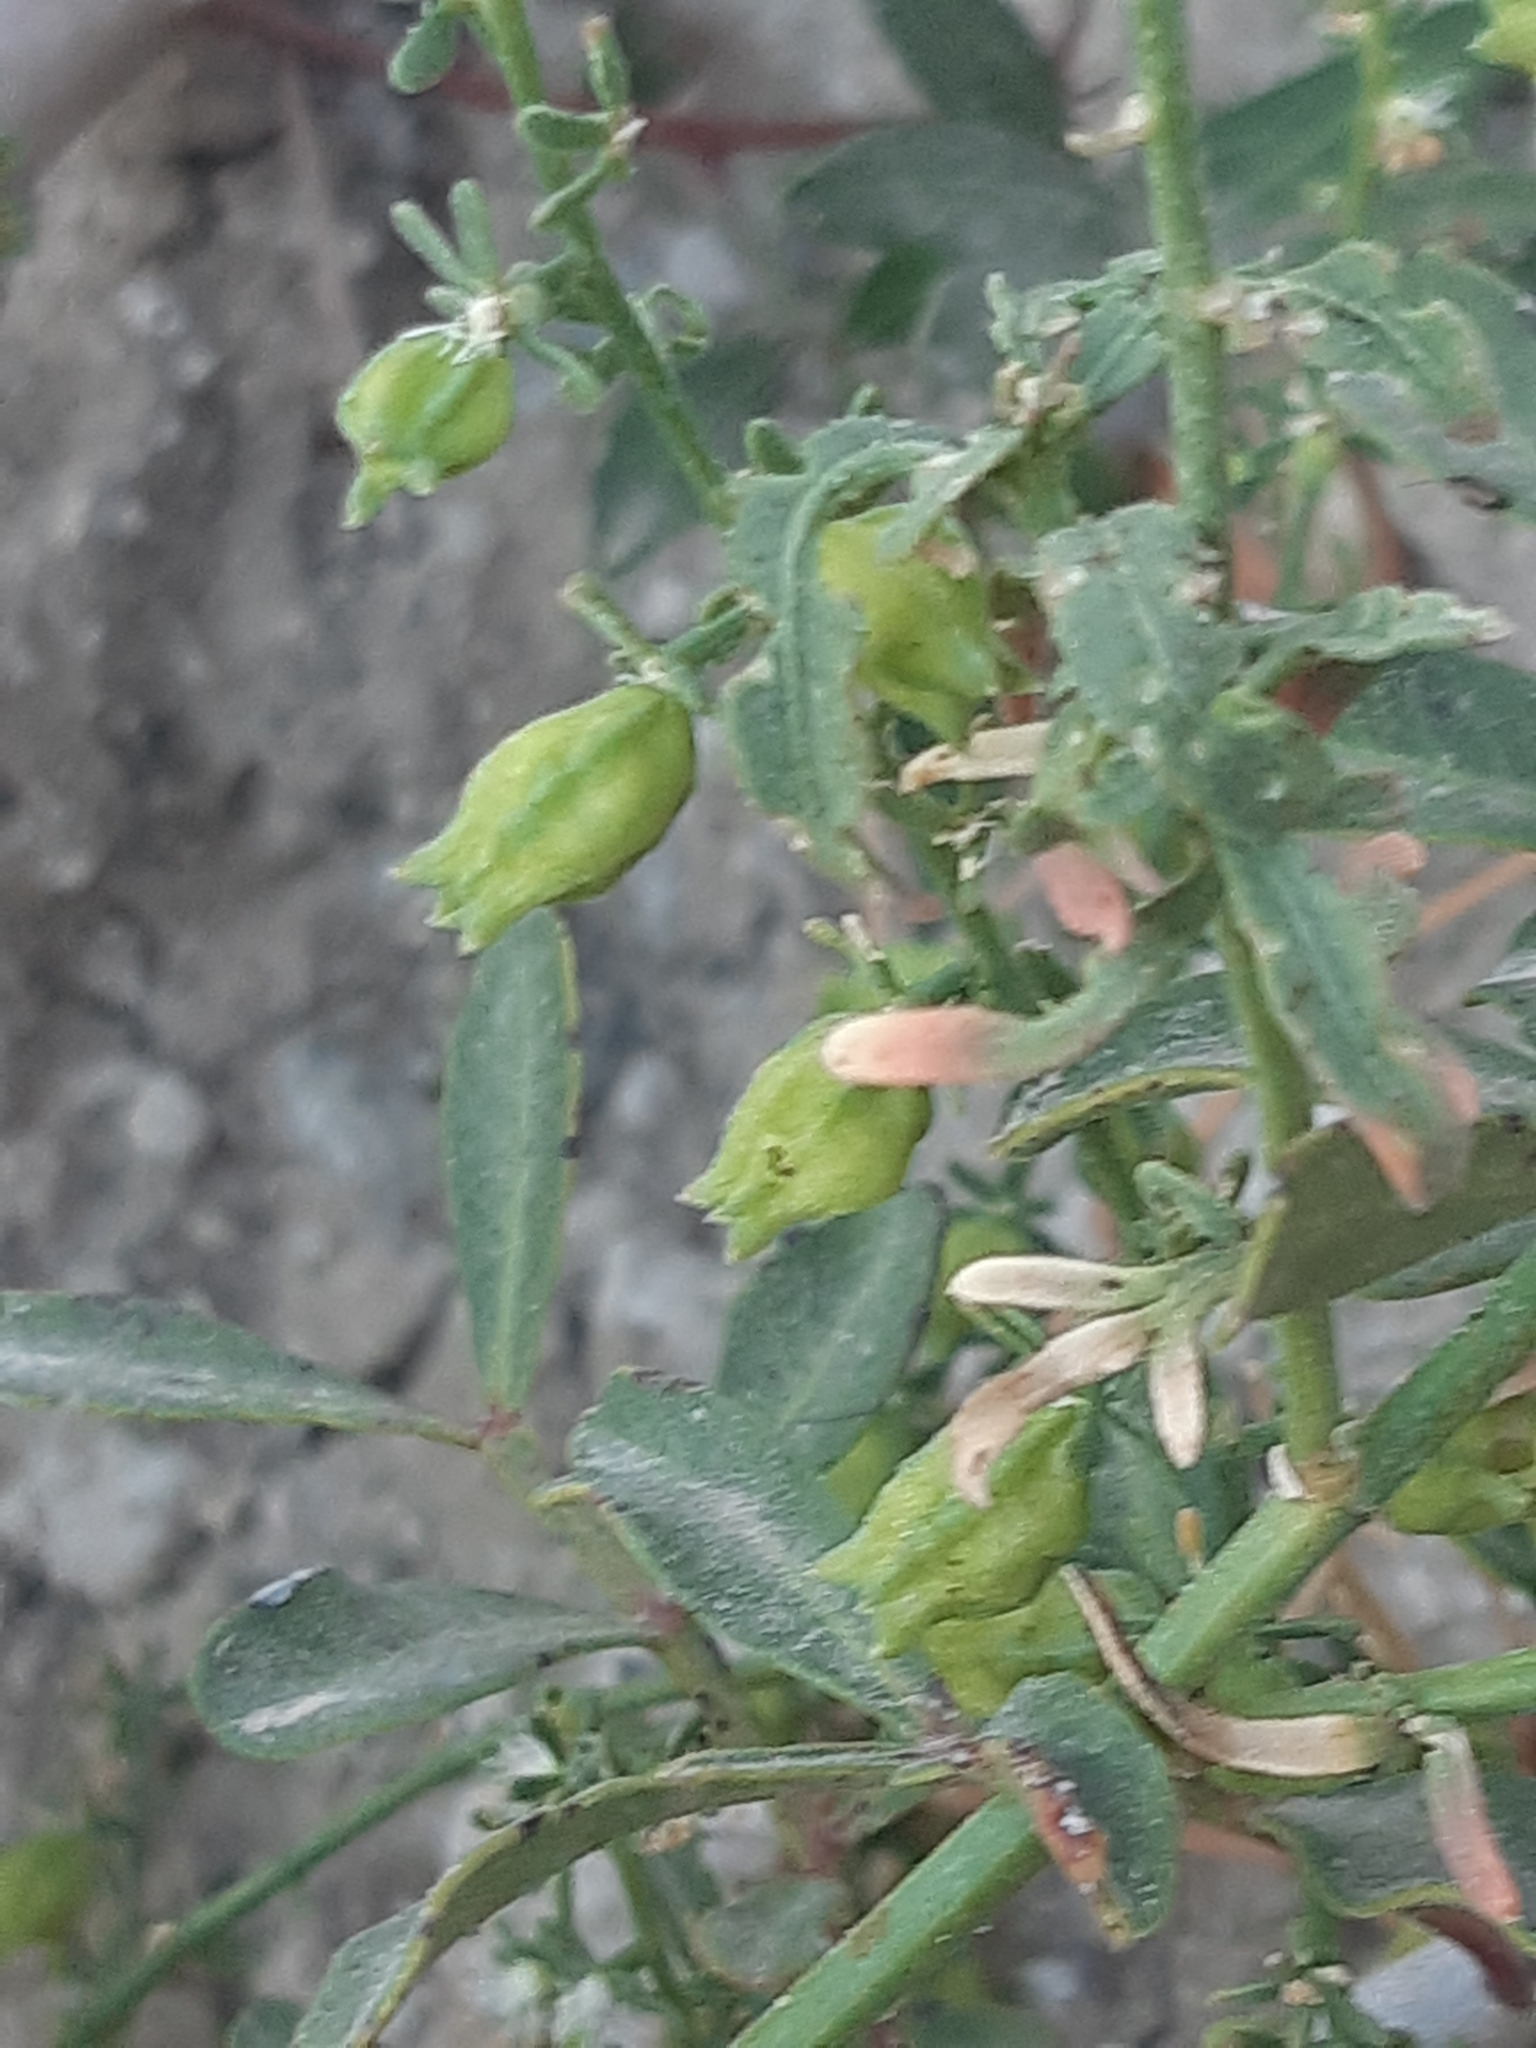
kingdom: Plantae
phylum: Tracheophyta
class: Magnoliopsida
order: Brassicales
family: Resedaceae
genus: Reseda
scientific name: Reseda minoica
